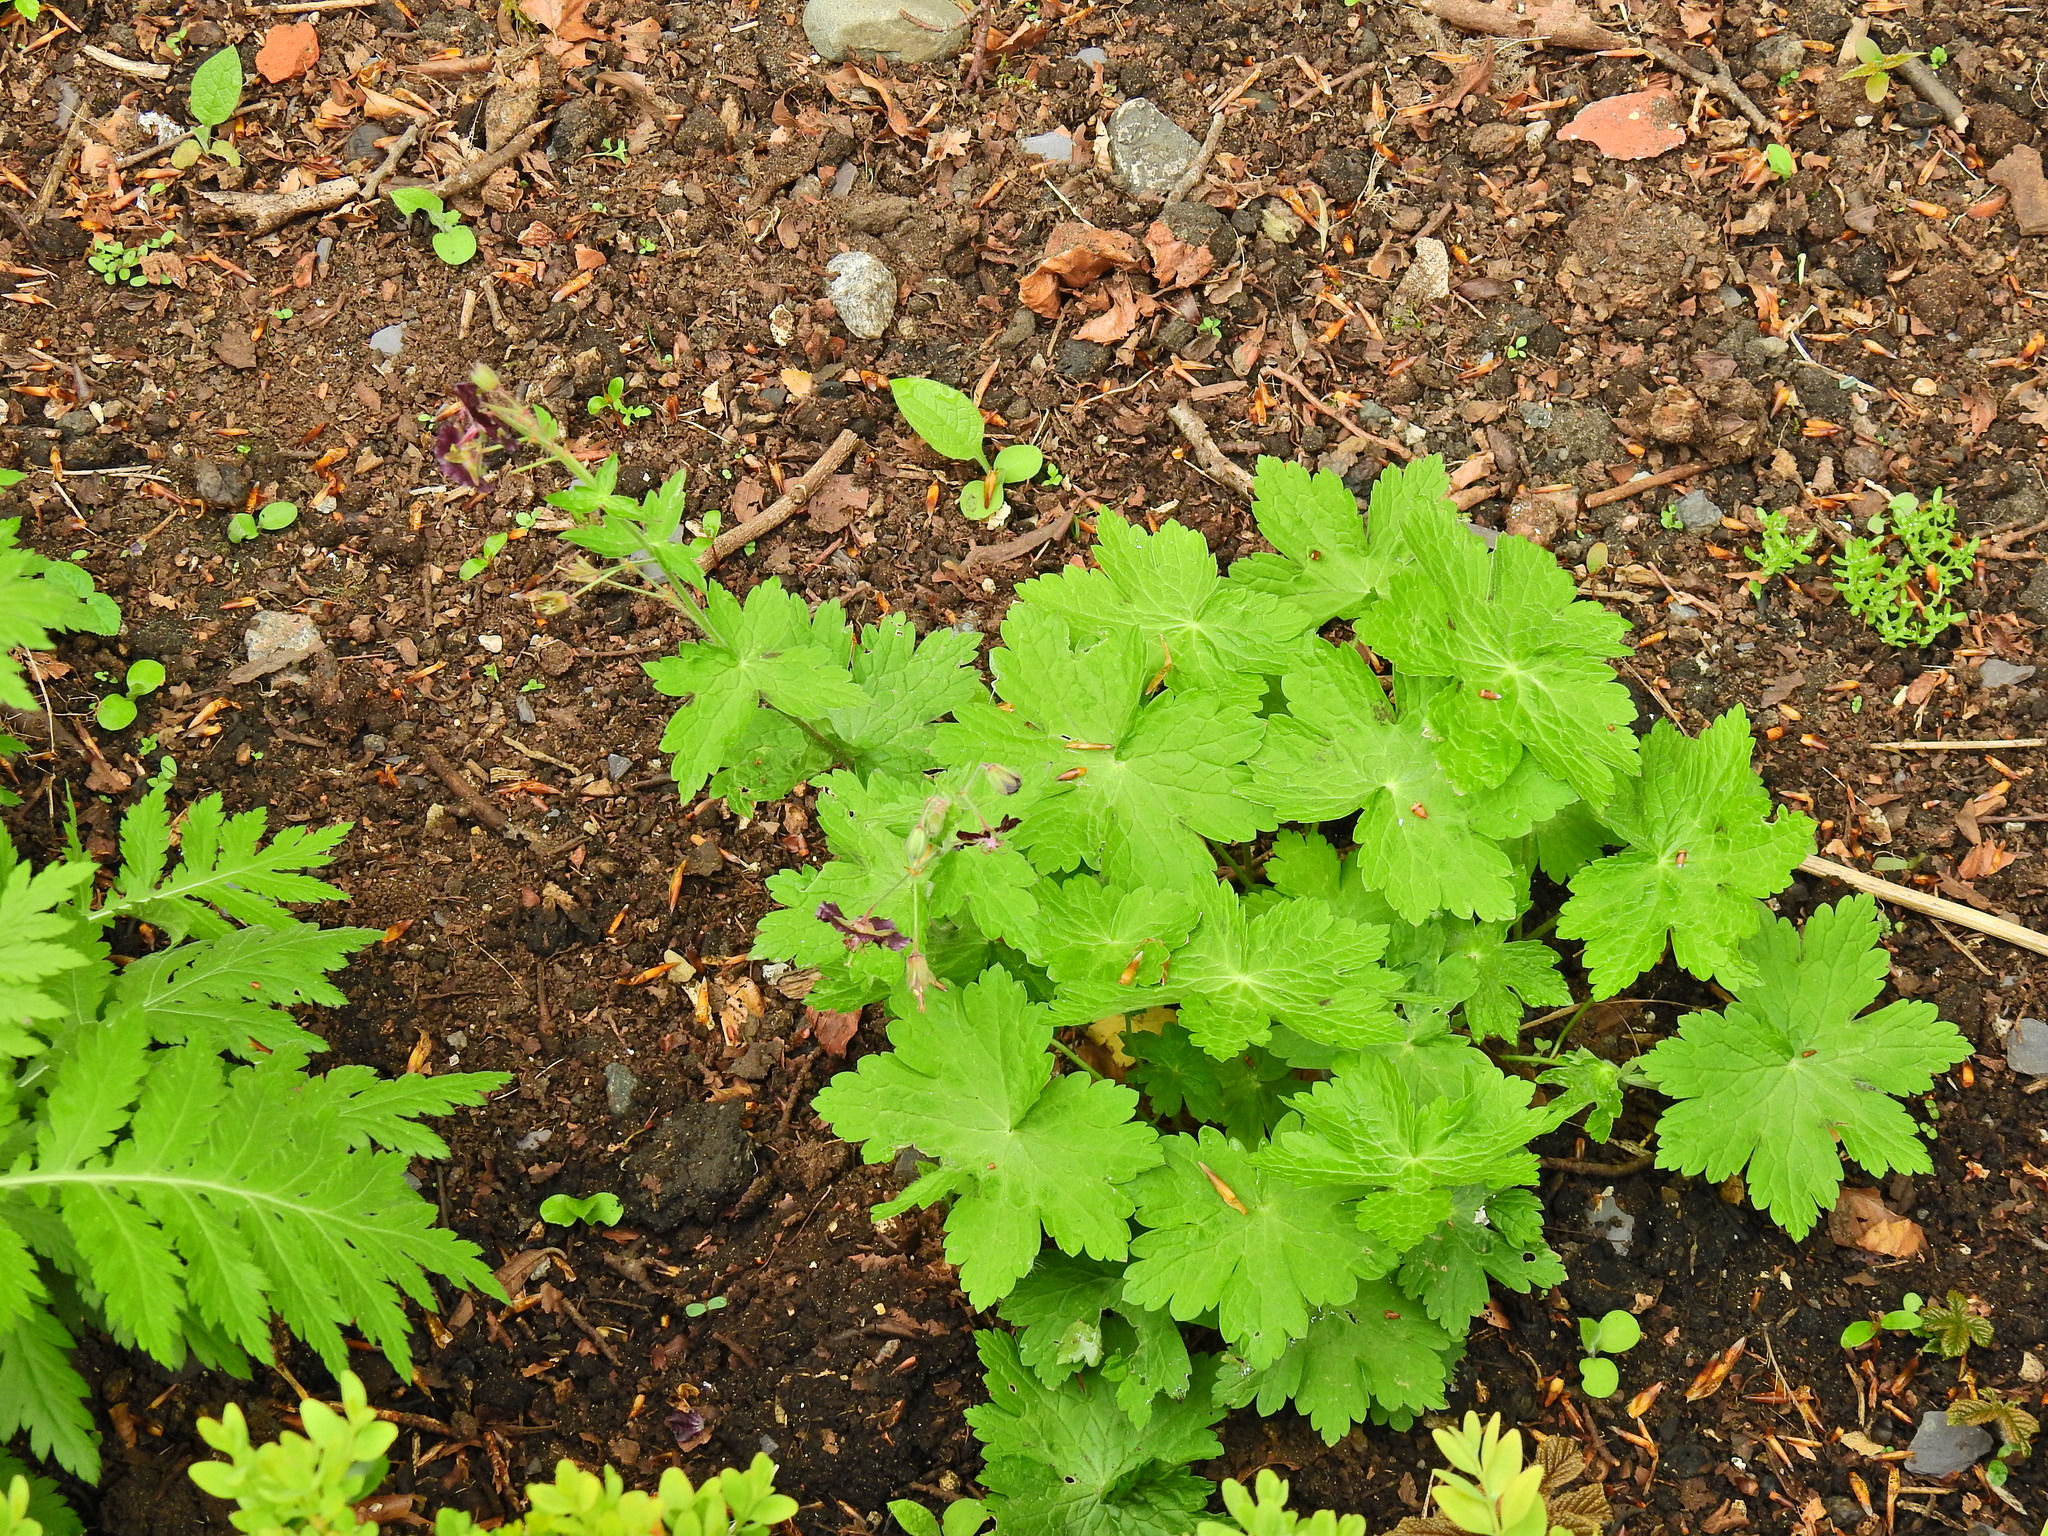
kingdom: Plantae
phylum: Tracheophyta
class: Magnoliopsida
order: Geraniales
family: Geraniaceae
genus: Geranium
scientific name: Geranium phaeum
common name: Dusky crane's-bill
